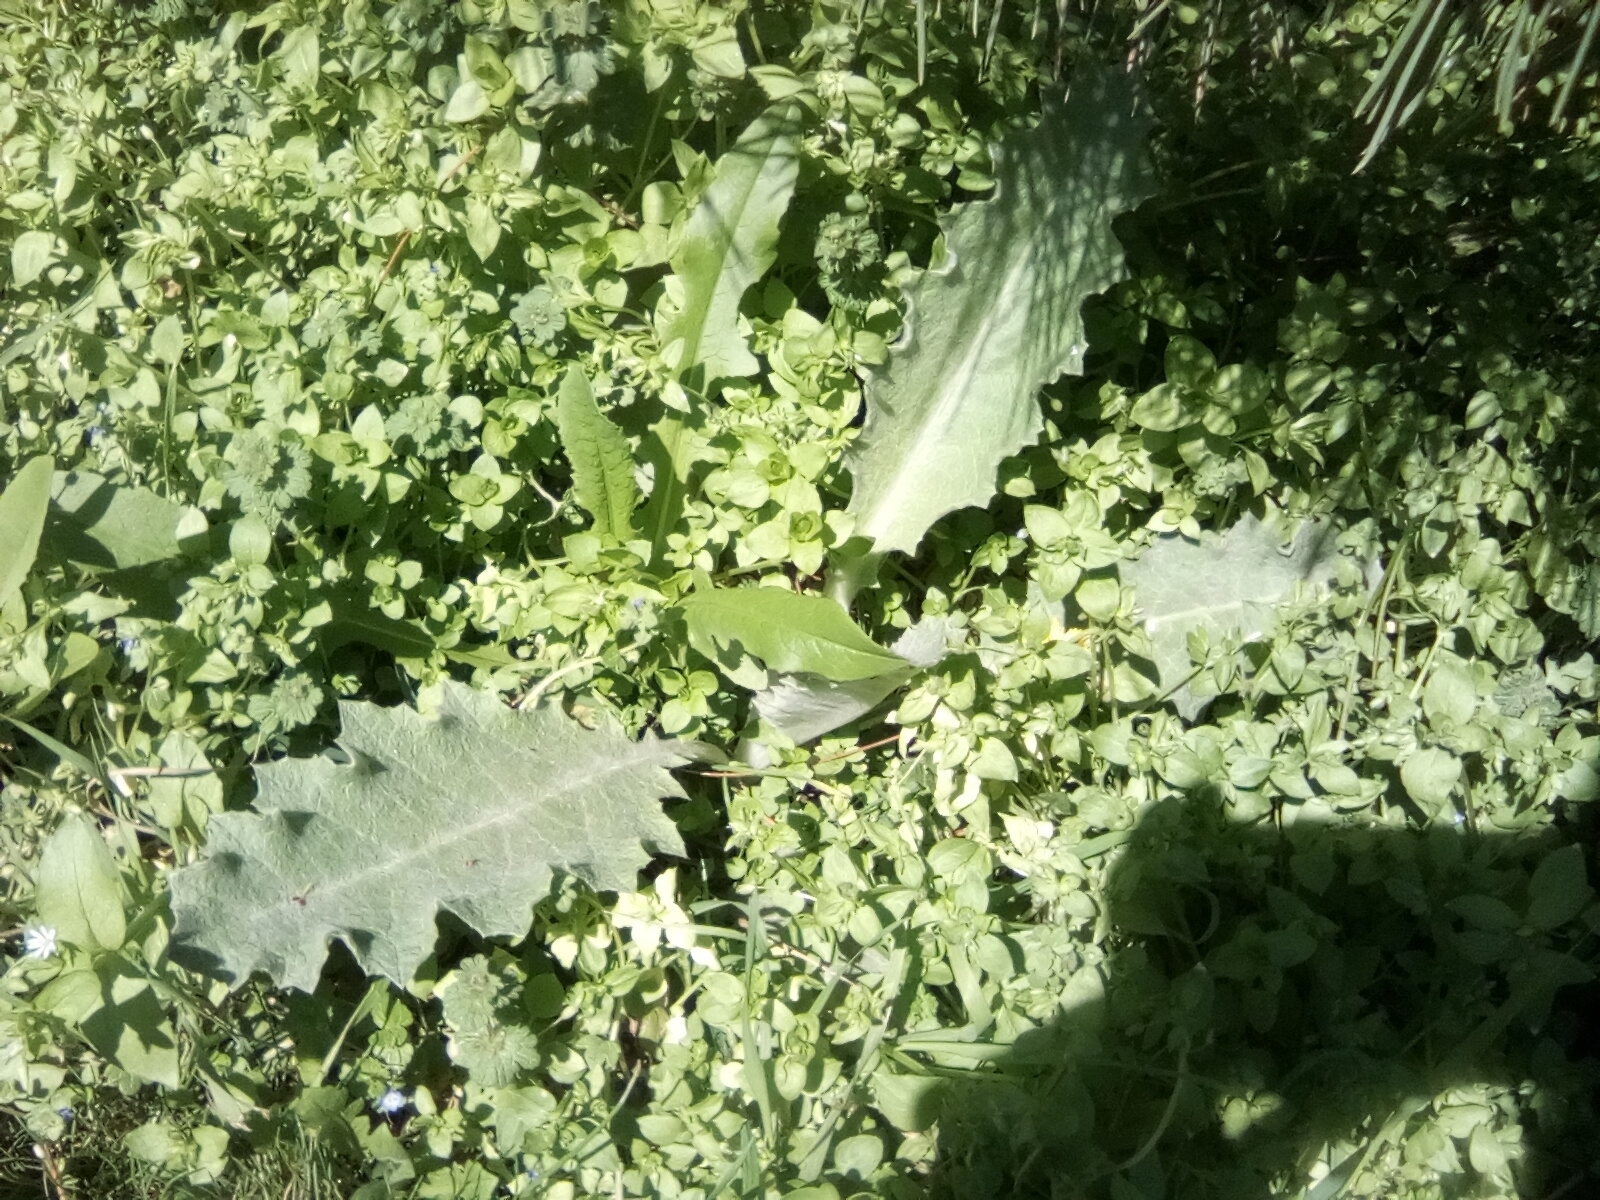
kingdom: Plantae
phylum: Tracheophyta
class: Magnoliopsida
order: Asterales
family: Asteraceae
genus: Onopordum
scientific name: Onopordum acanthium
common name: Scotch thistle
